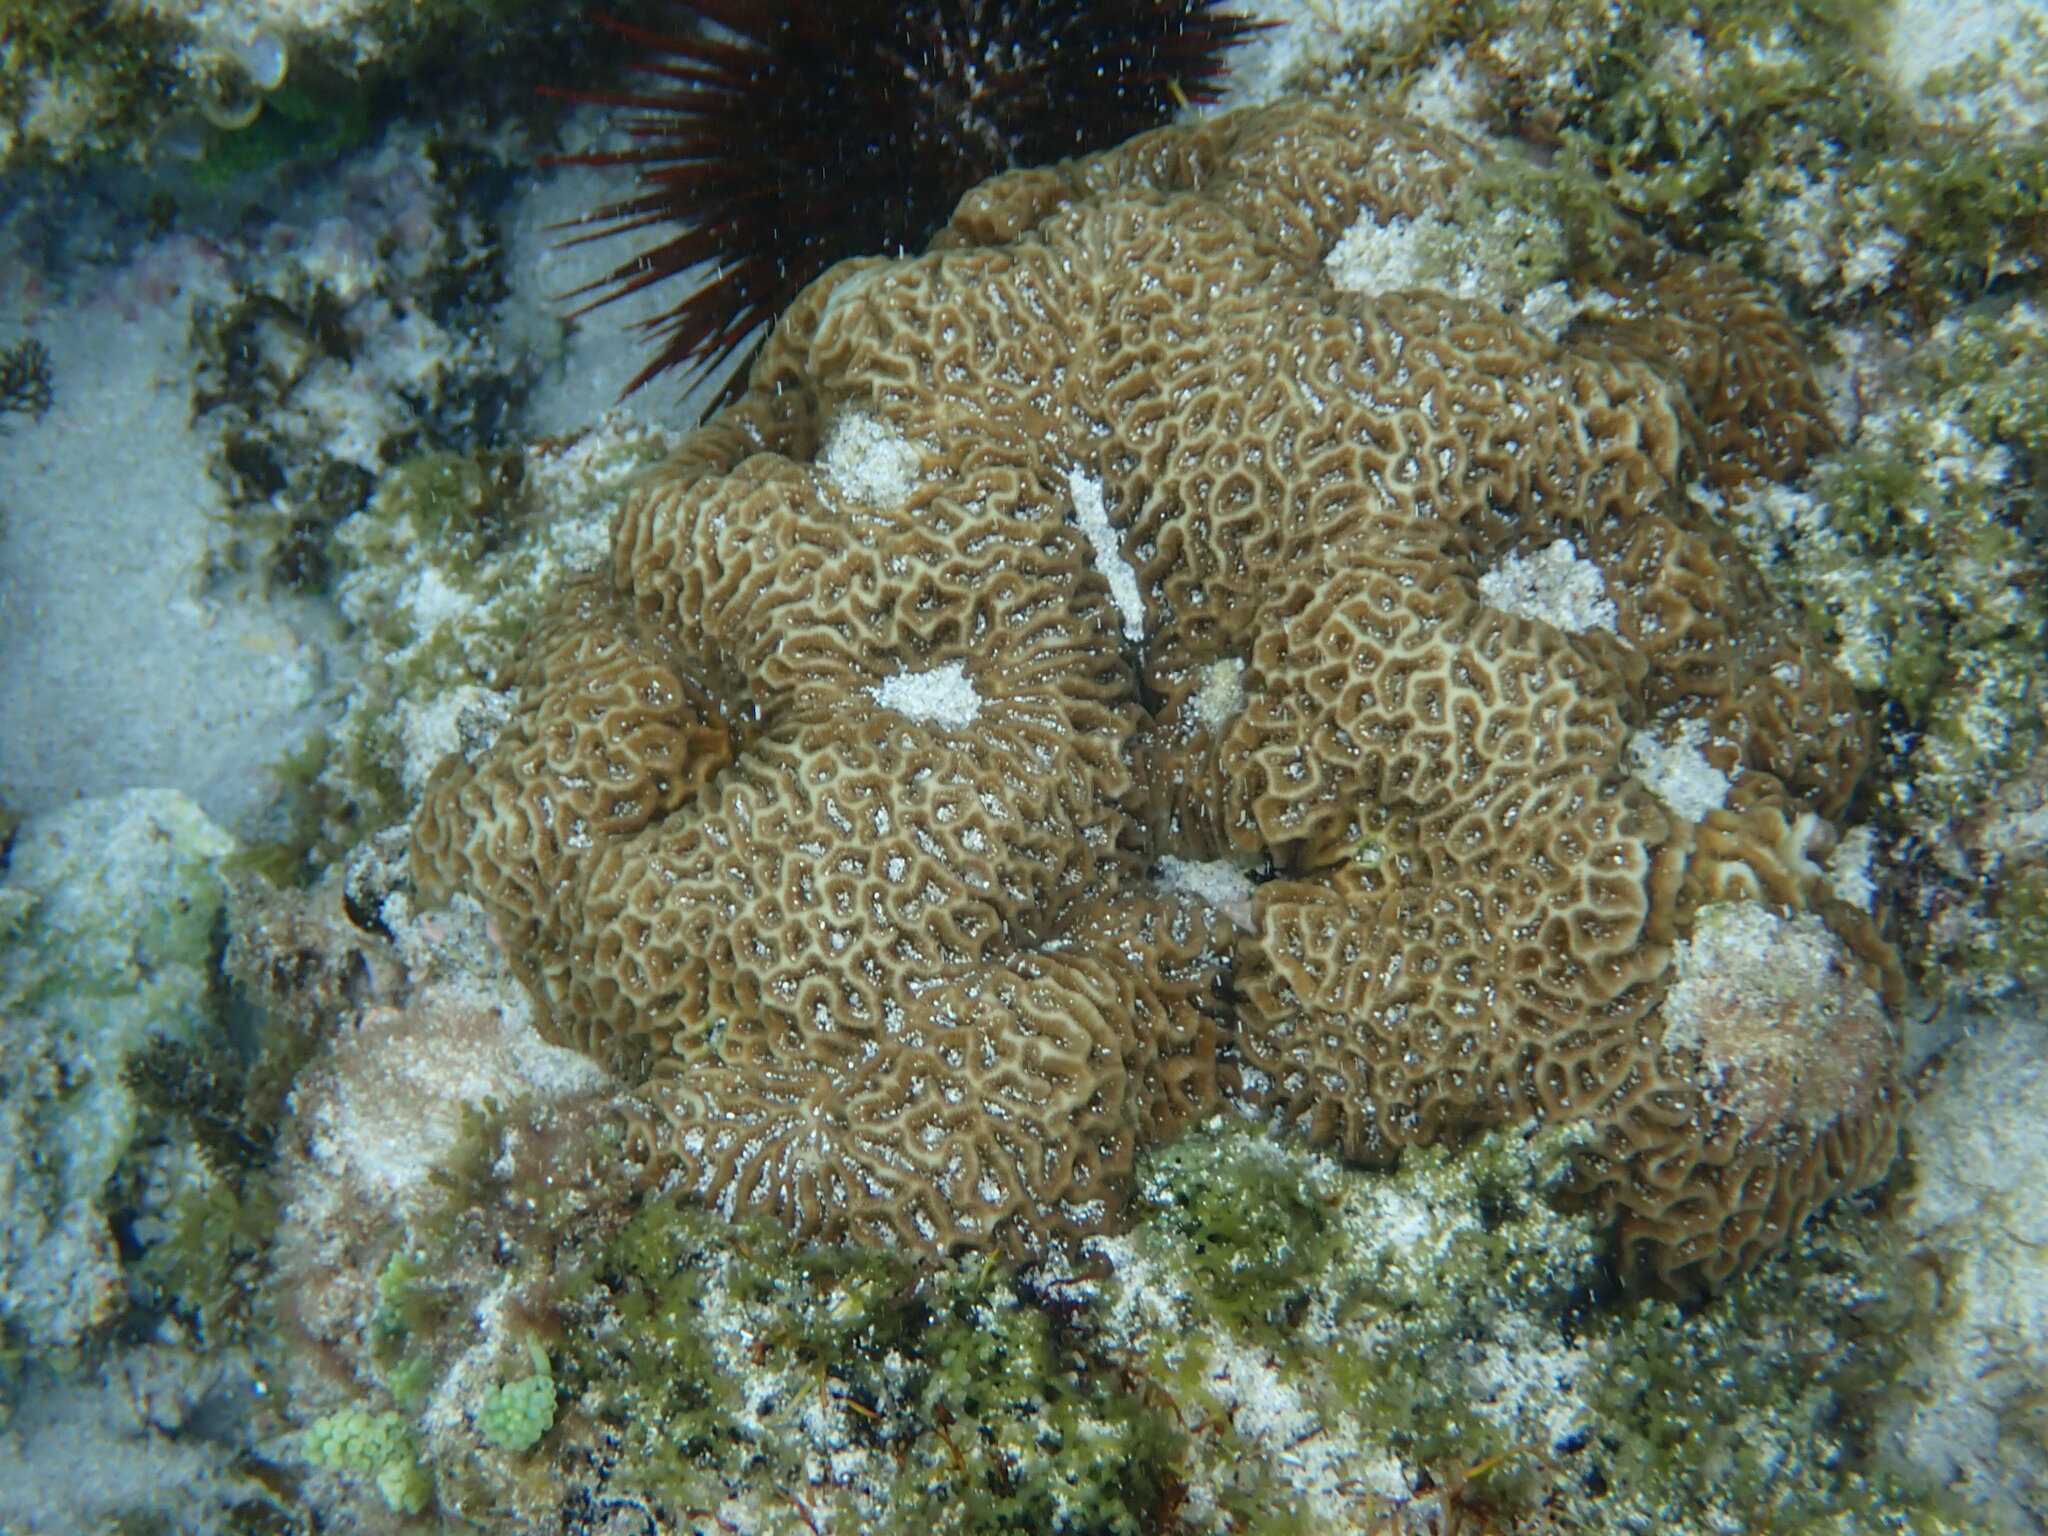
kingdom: Animalia
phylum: Cnidaria
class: Anthozoa
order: Scleractinia
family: Merulinidae
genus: Paragoniastrea
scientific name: Paragoniastrea australensis
